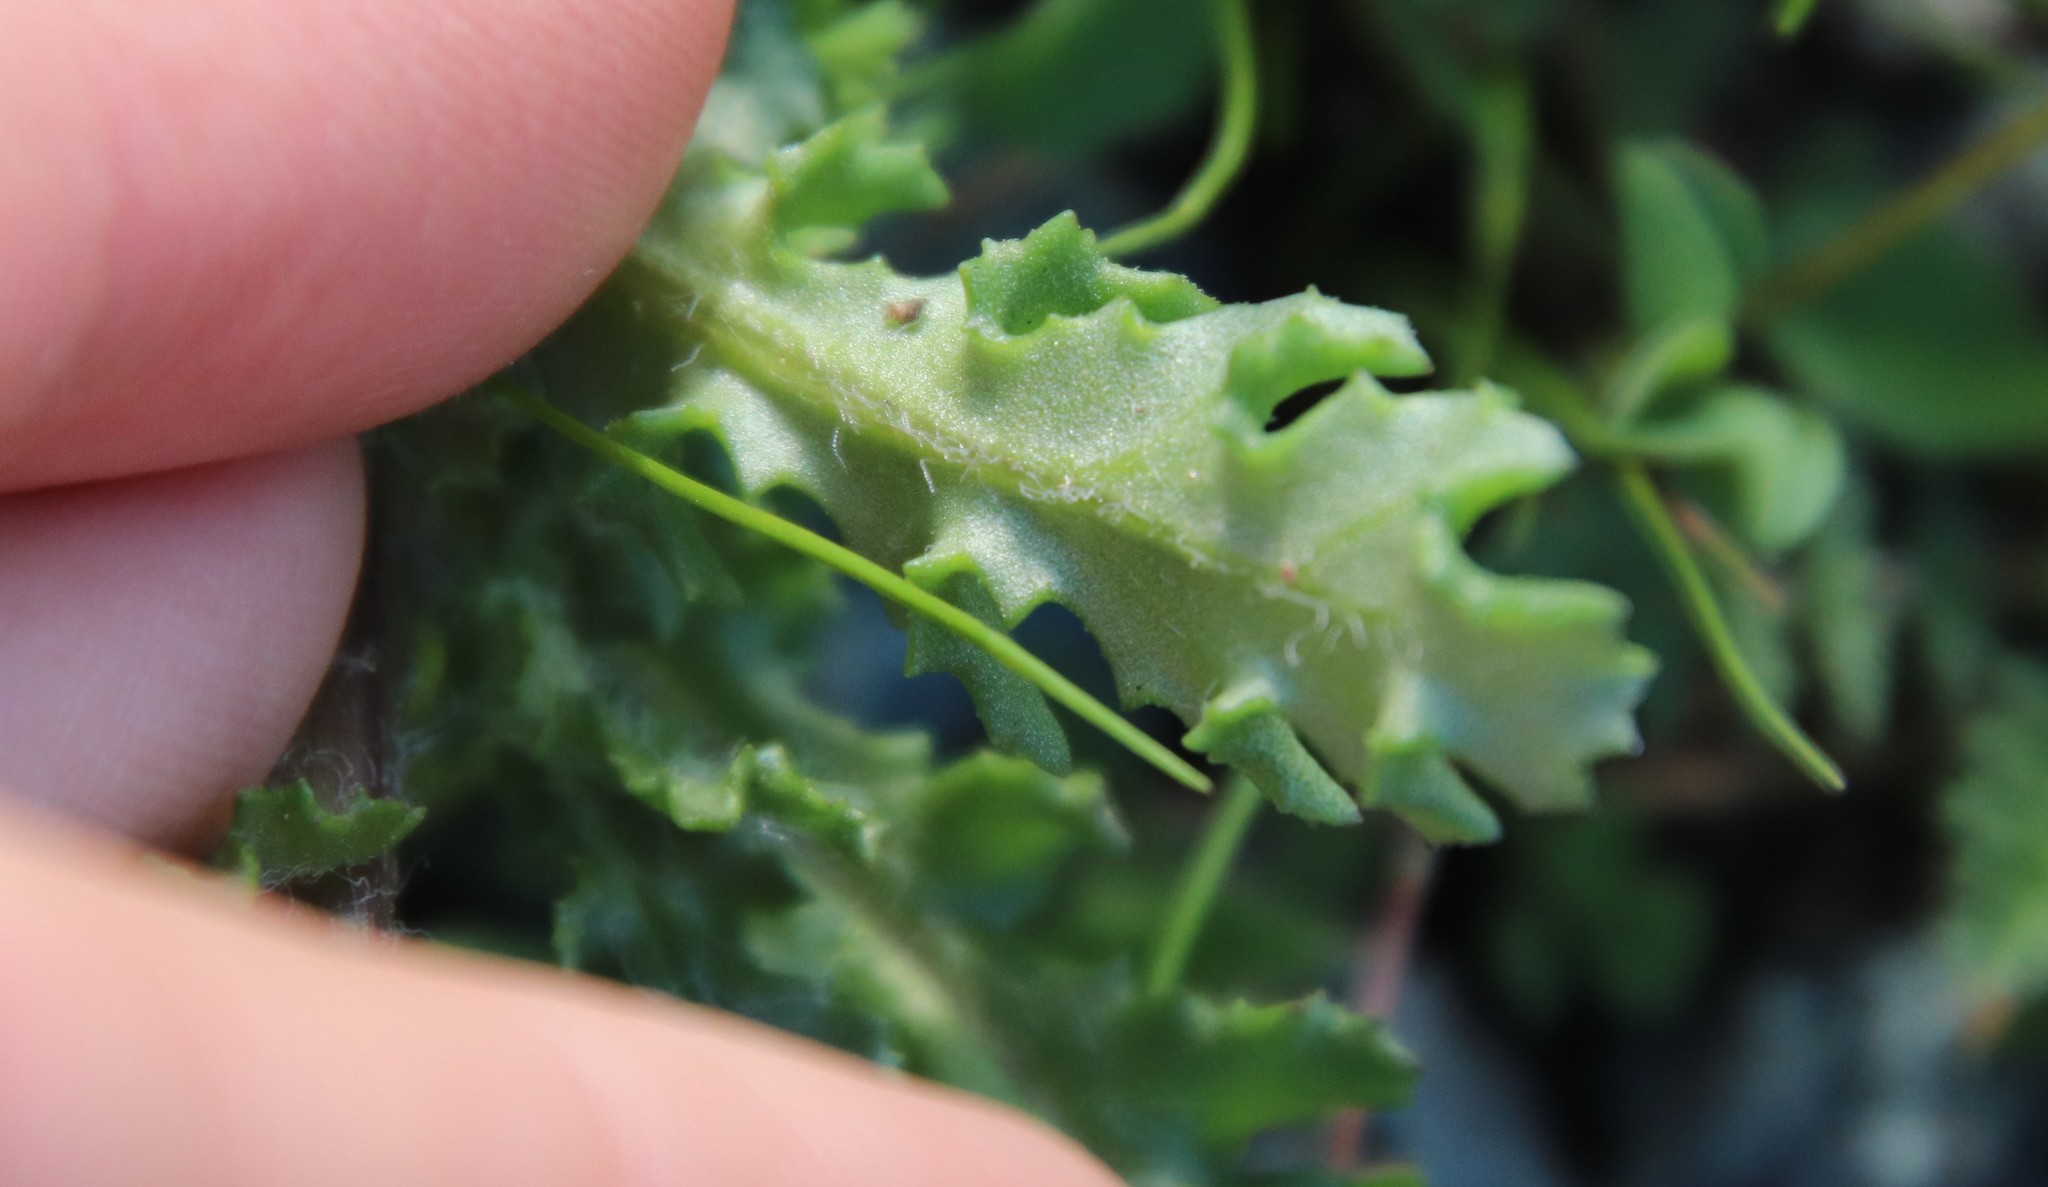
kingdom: Plantae
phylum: Tracheophyta
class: Magnoliopsida
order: Asterales
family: Asteraceae
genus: Senecio
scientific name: Senecio vulgaris
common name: Old-man-in-the-spring
